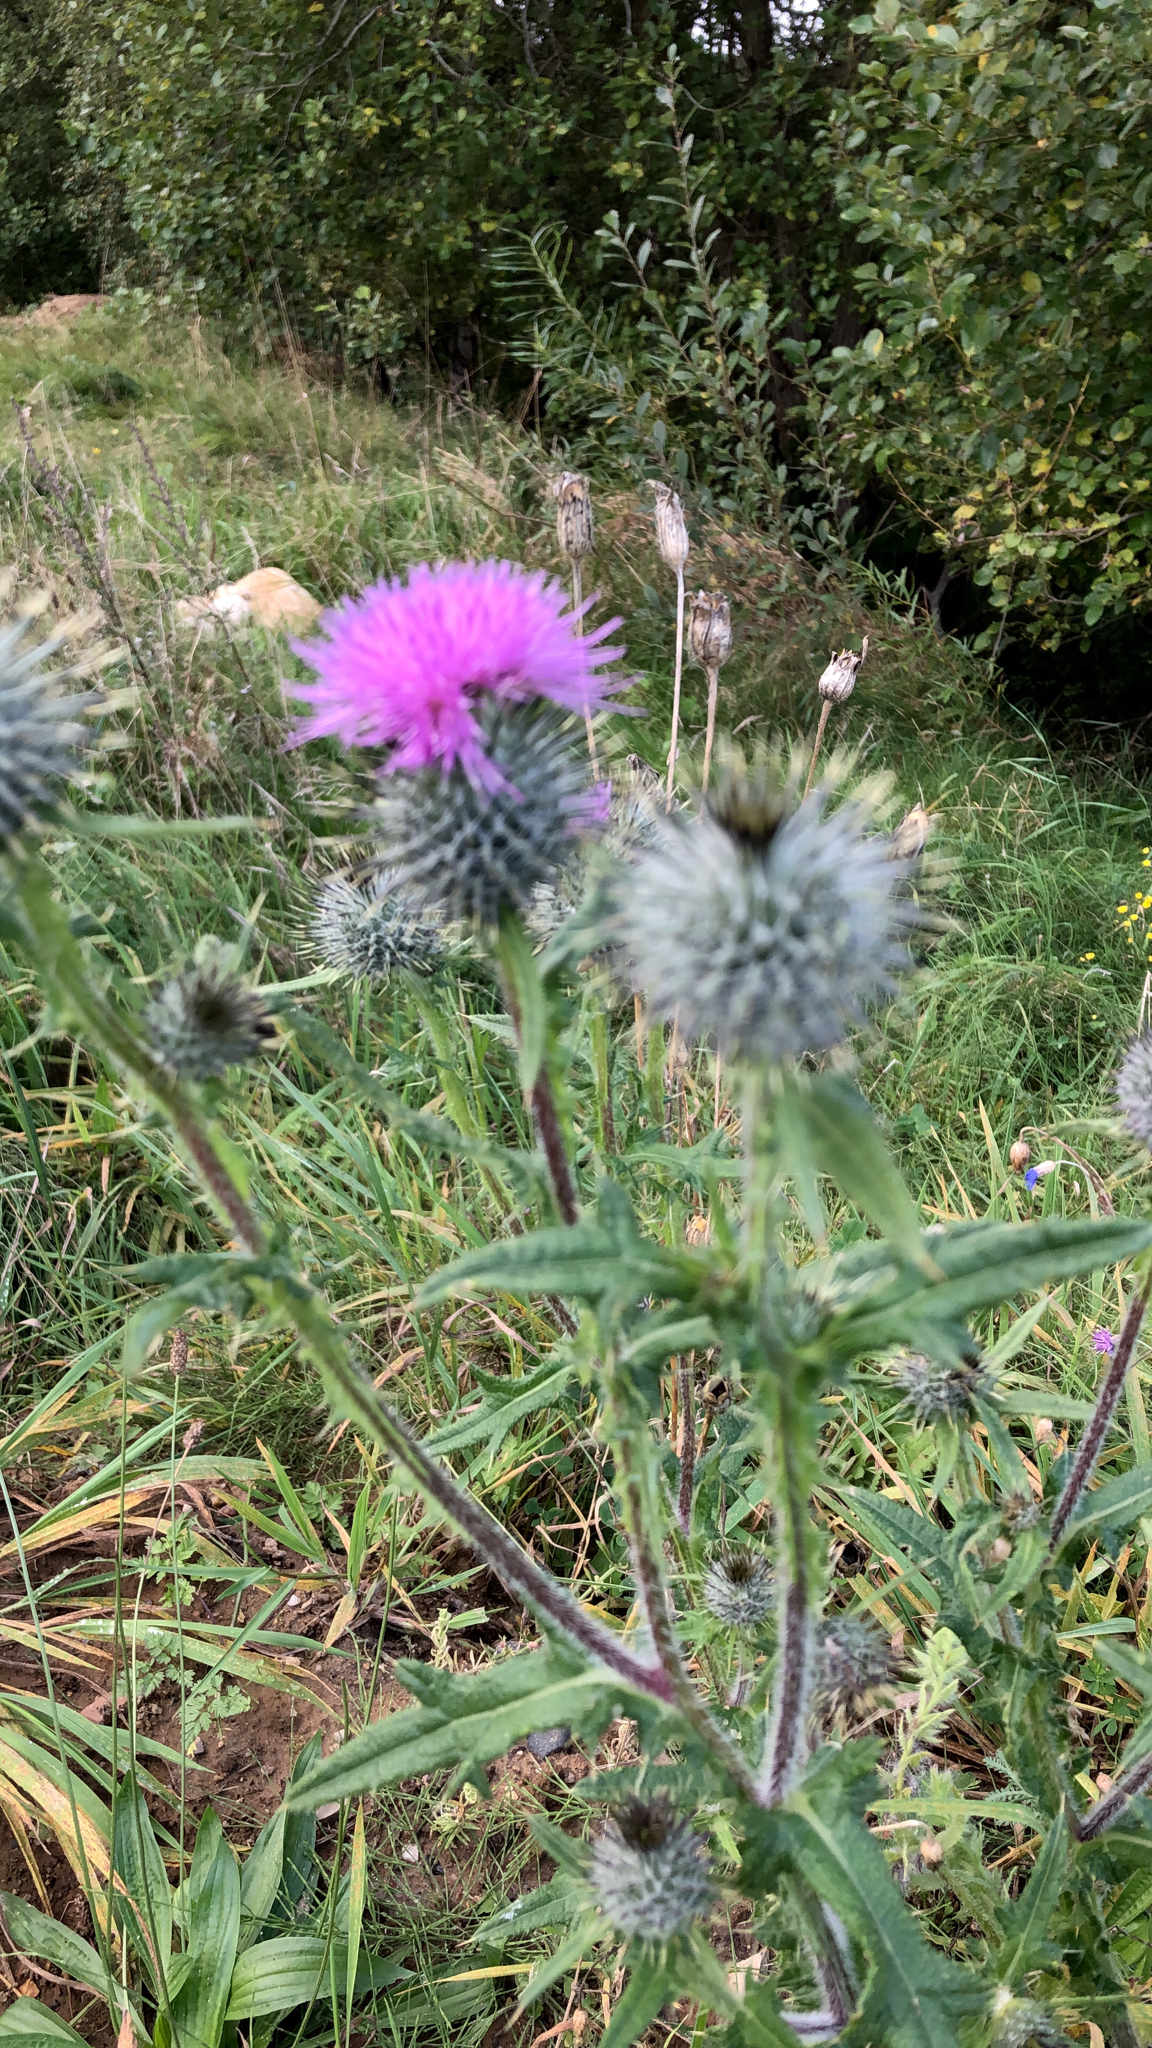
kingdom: Plantae
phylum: Tracheophyta
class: Magnoliopsida
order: Asterales
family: Asteraceae
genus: Cirsium
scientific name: Cirsium vulgare
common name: Bull thistle
